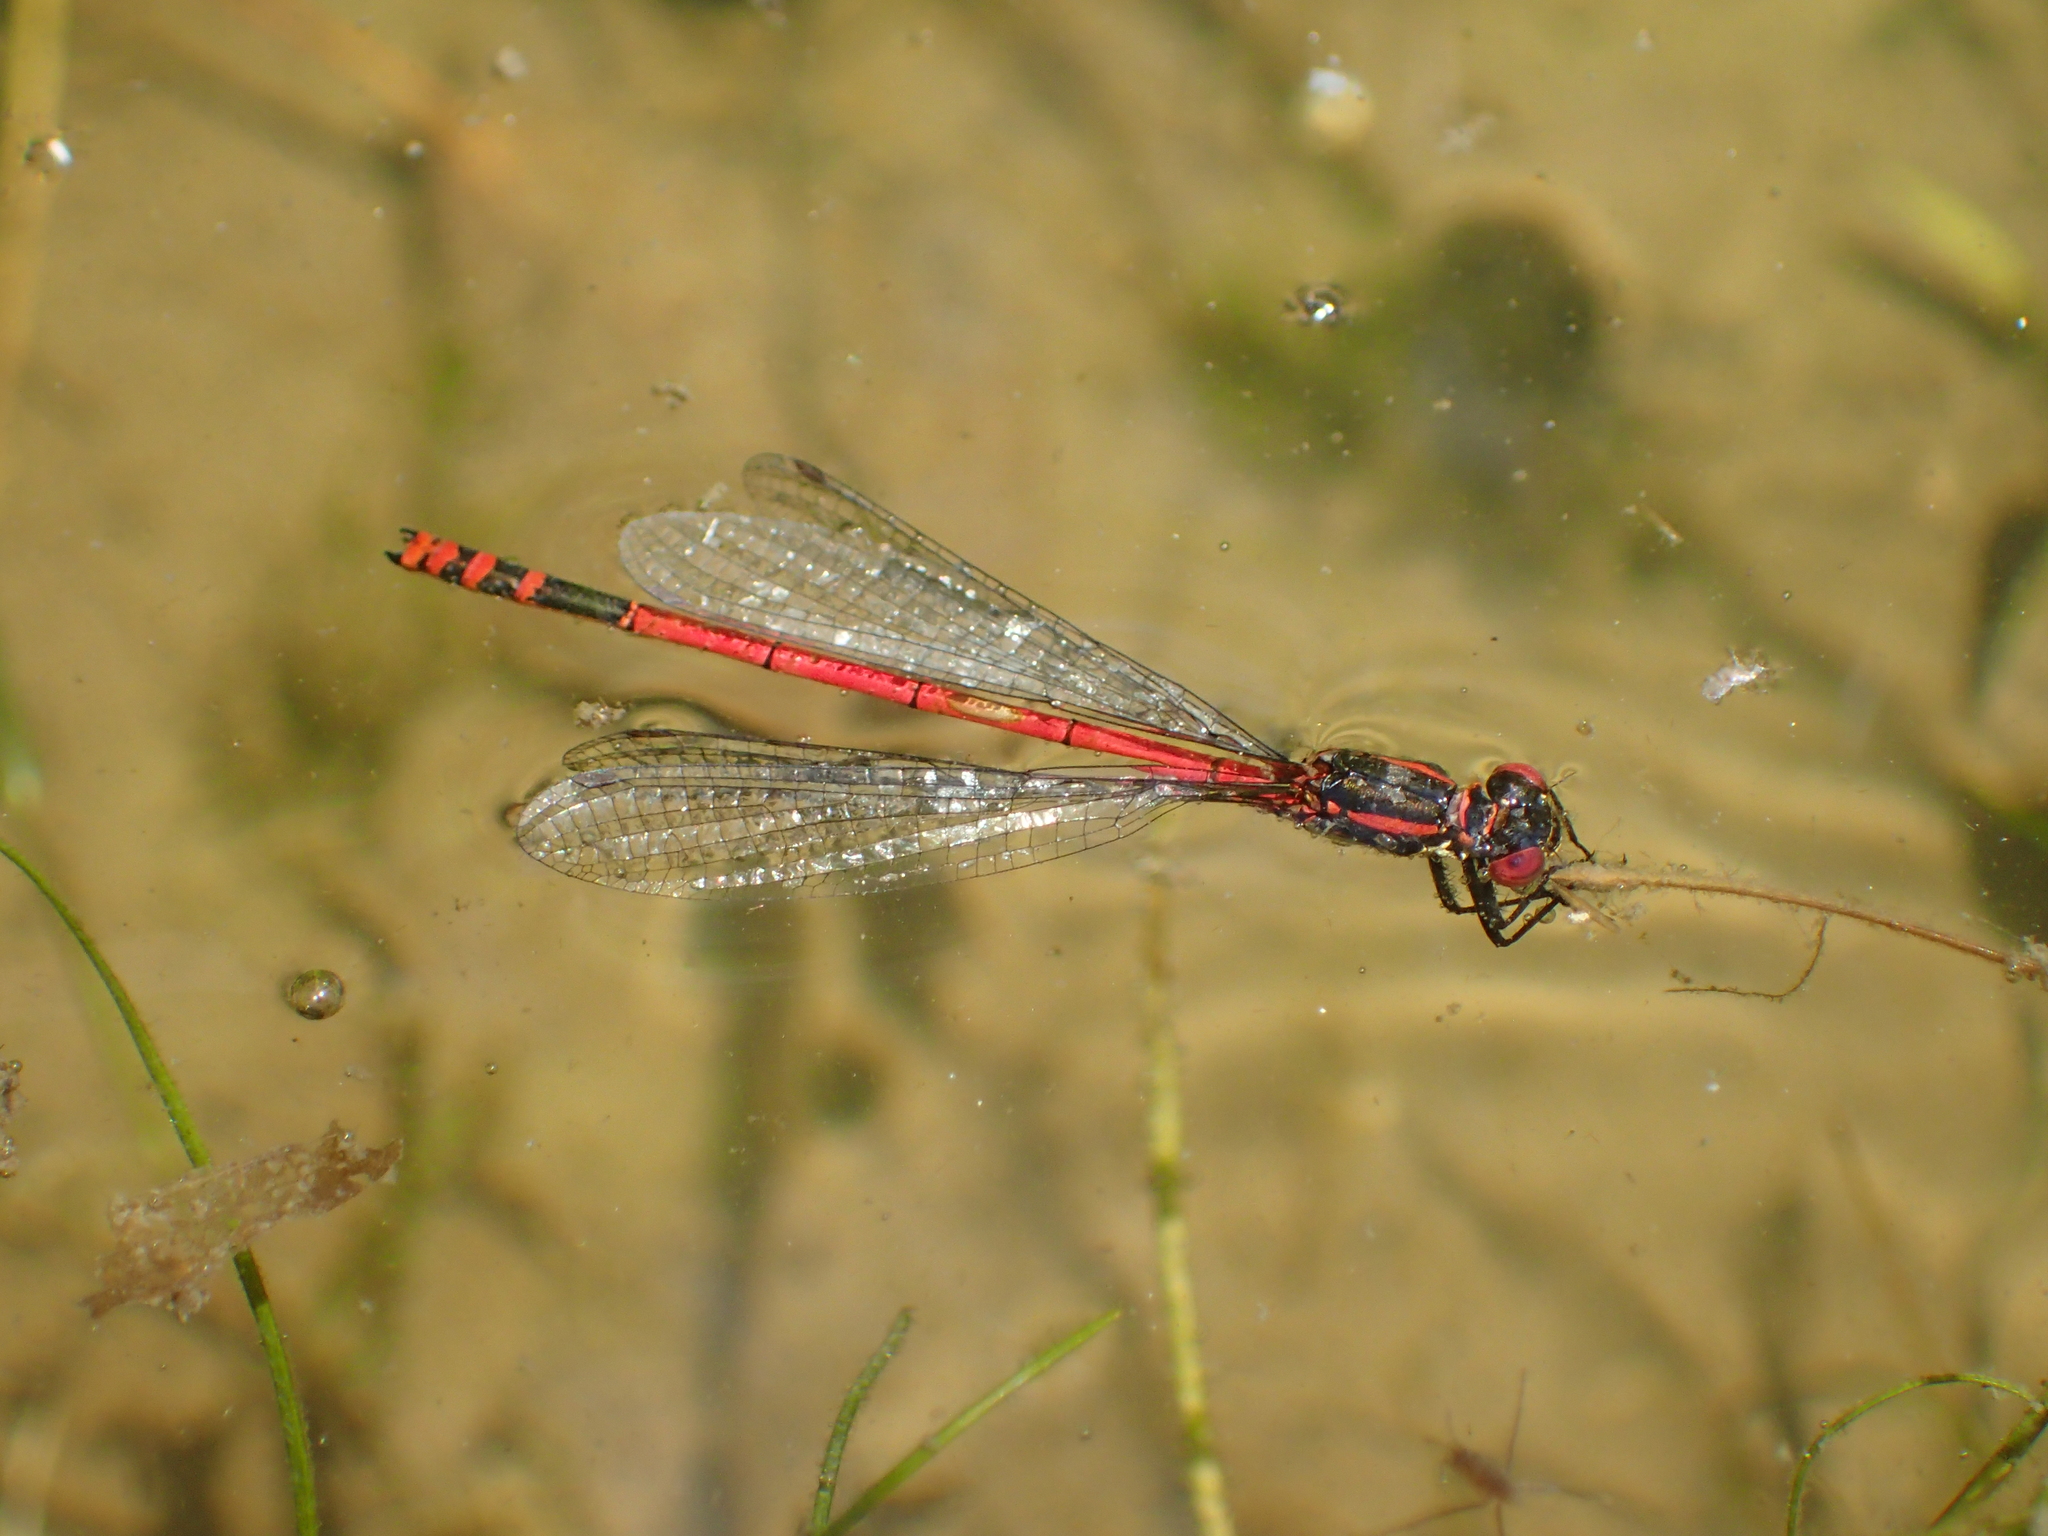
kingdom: Animalia
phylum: Arthropoda
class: Insecta
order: Odonata
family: Coenagrionidae
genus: Pyrrhosoma
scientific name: Pyrrhosoma nymphula
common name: Large red damsel
